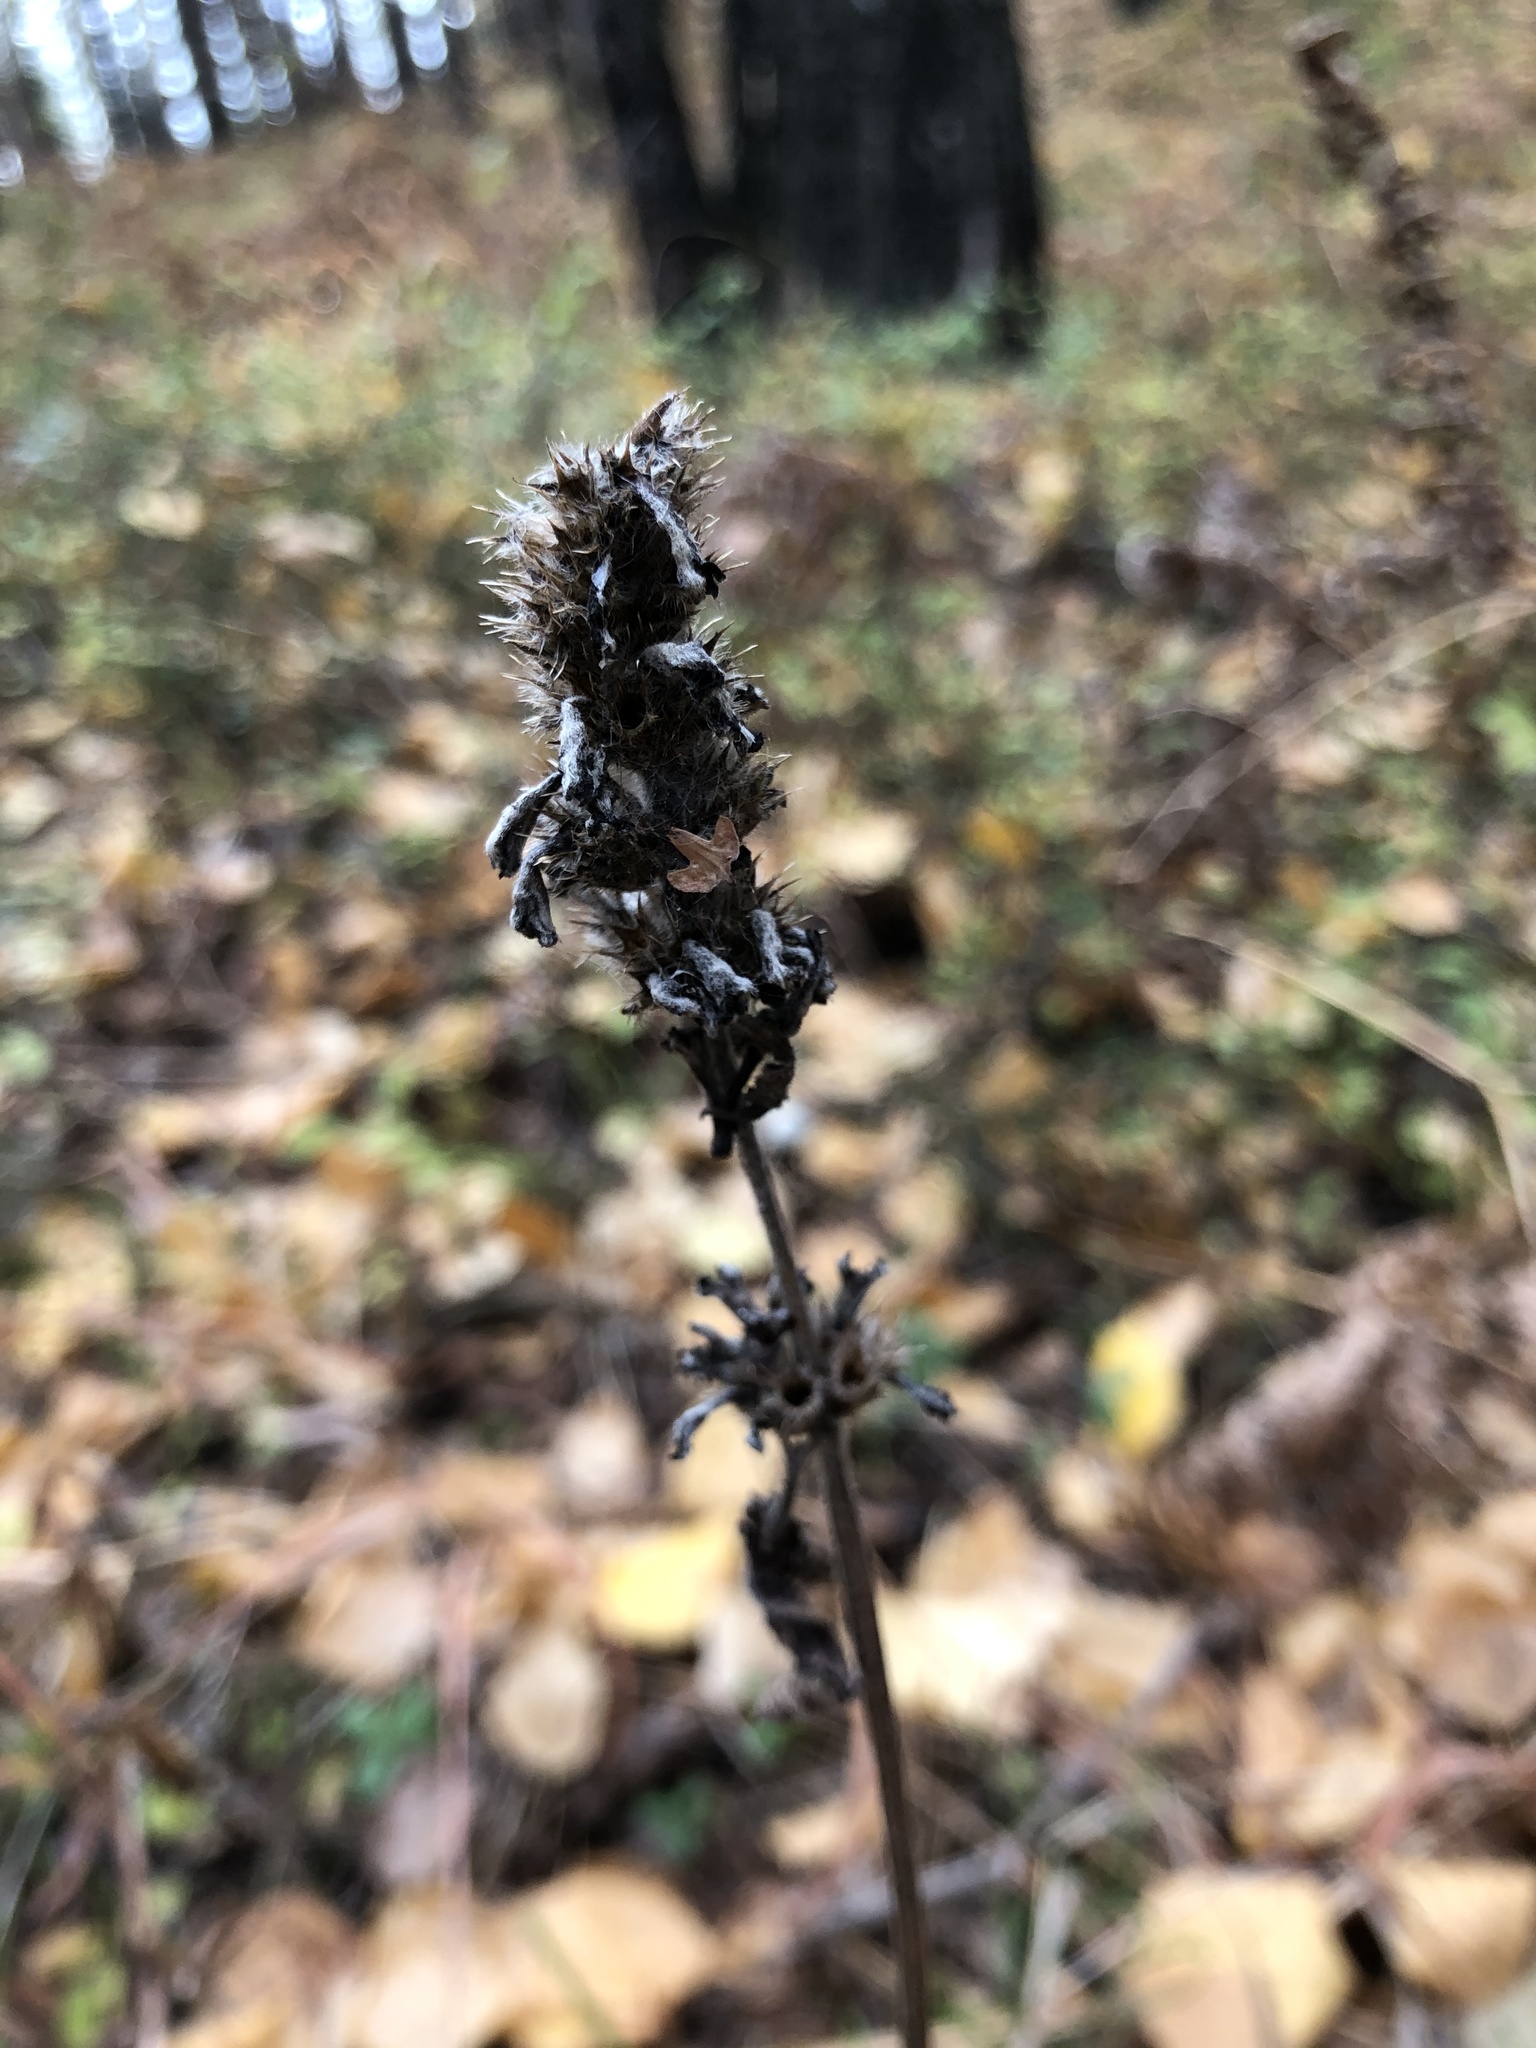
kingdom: Plantae
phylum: Tracheophyta
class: Magnoliopsida
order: Lamiales
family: Lamiaceae
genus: Betonica
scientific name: Betonica officinalis
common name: Bishop's-wort
